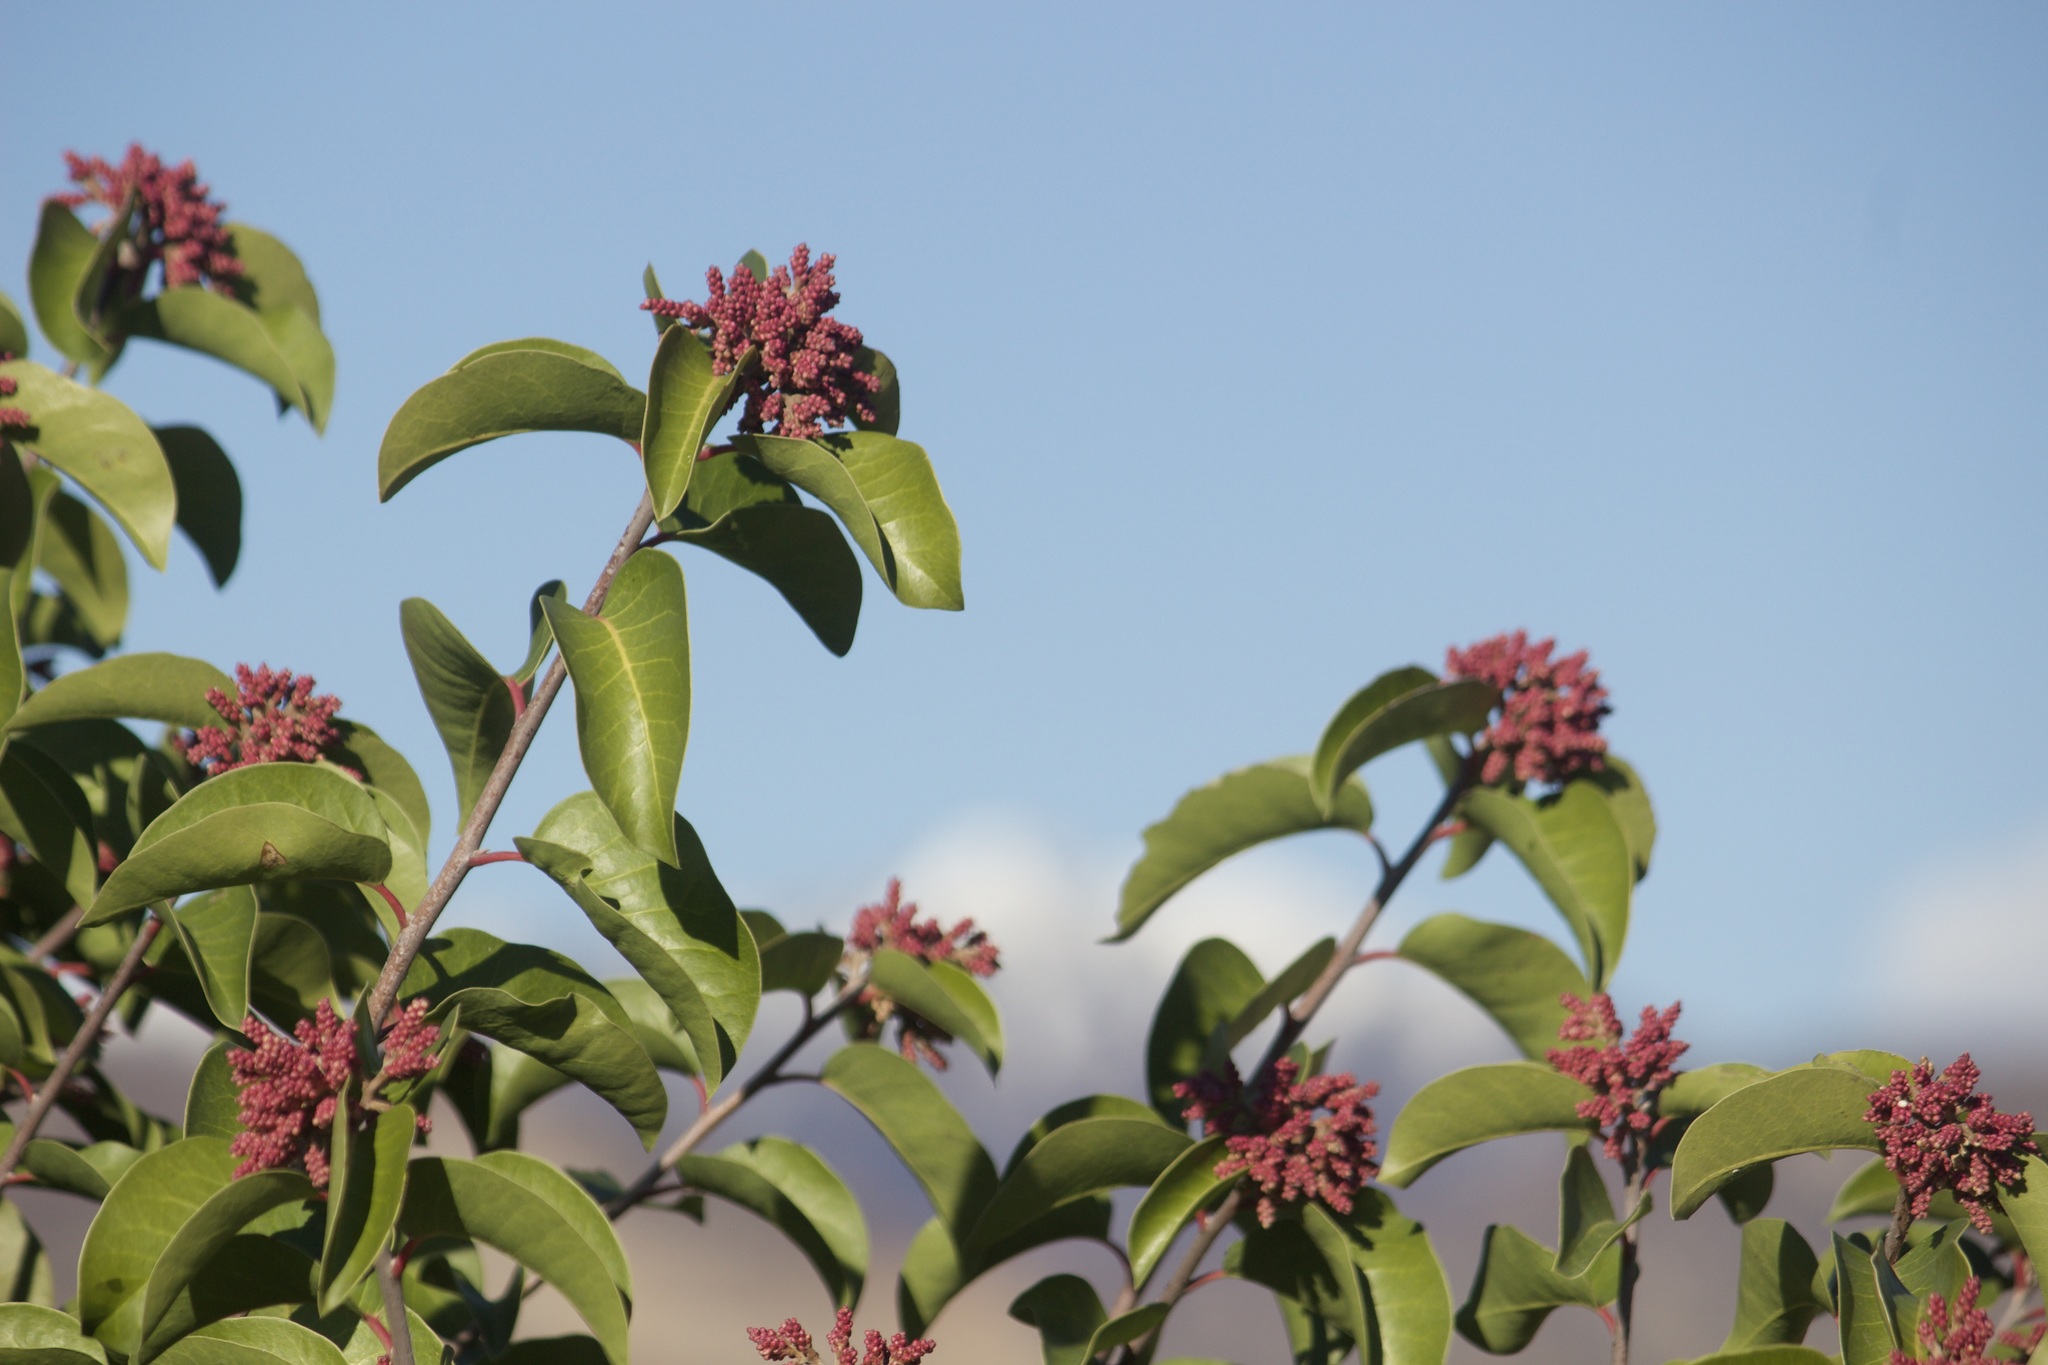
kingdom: Plantae
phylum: Tracheophyta
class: Magnoliopsida
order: Sapindales
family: Anacardiaceae
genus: Rhus
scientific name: Rhus ovata
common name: Sugar sumac
